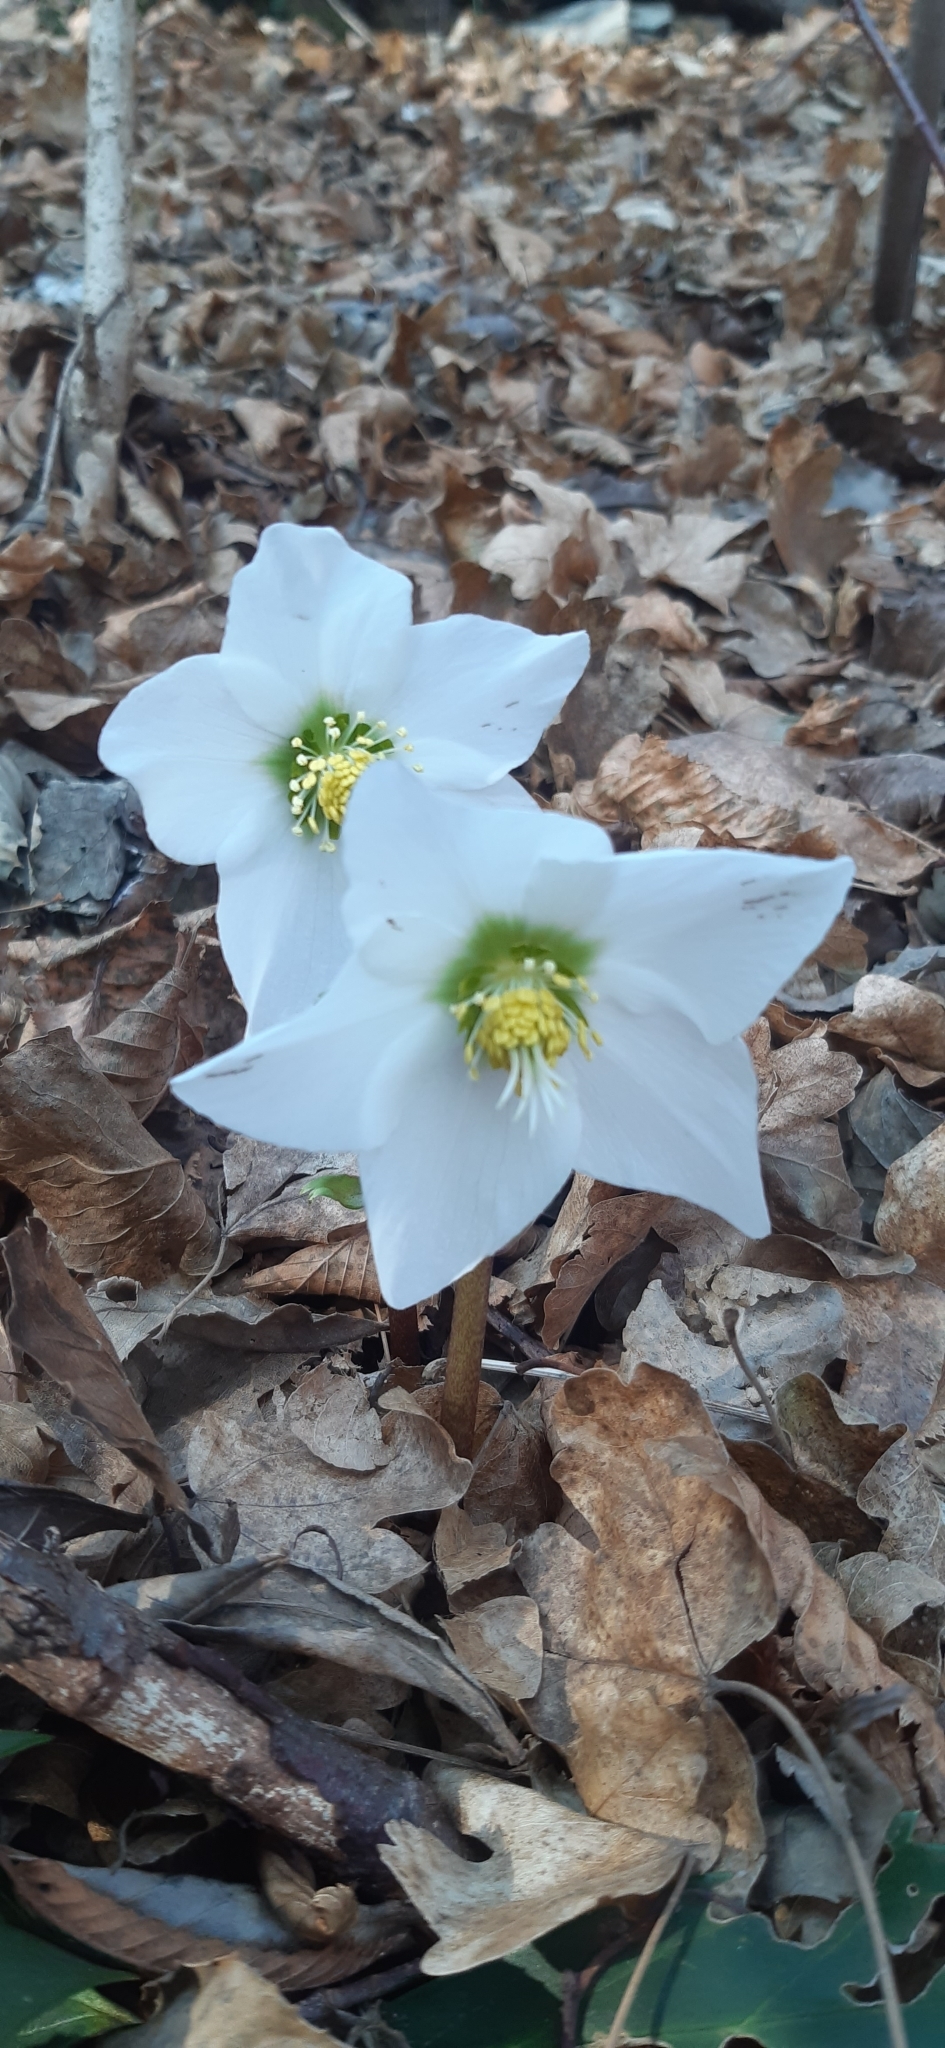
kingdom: Plantae
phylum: Tracheophyta
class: Magnoliopsida
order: Ranunculales
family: Ranunculaceae
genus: Helleborus
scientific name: Helleborus niger
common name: Black hellebore
